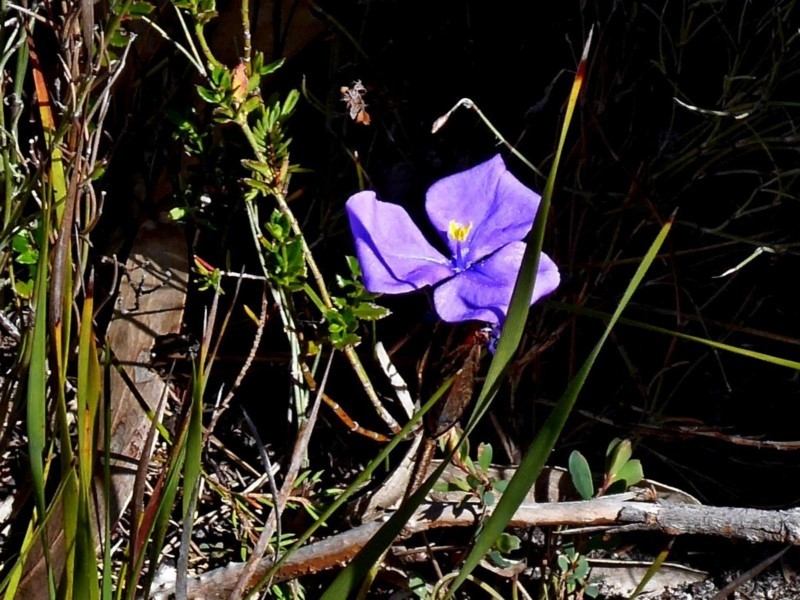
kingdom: Plantae
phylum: Tracheophyta
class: Liliopsida
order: Asparagales
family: Iridaceae
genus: Patersonia
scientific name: Patersonia sericea
